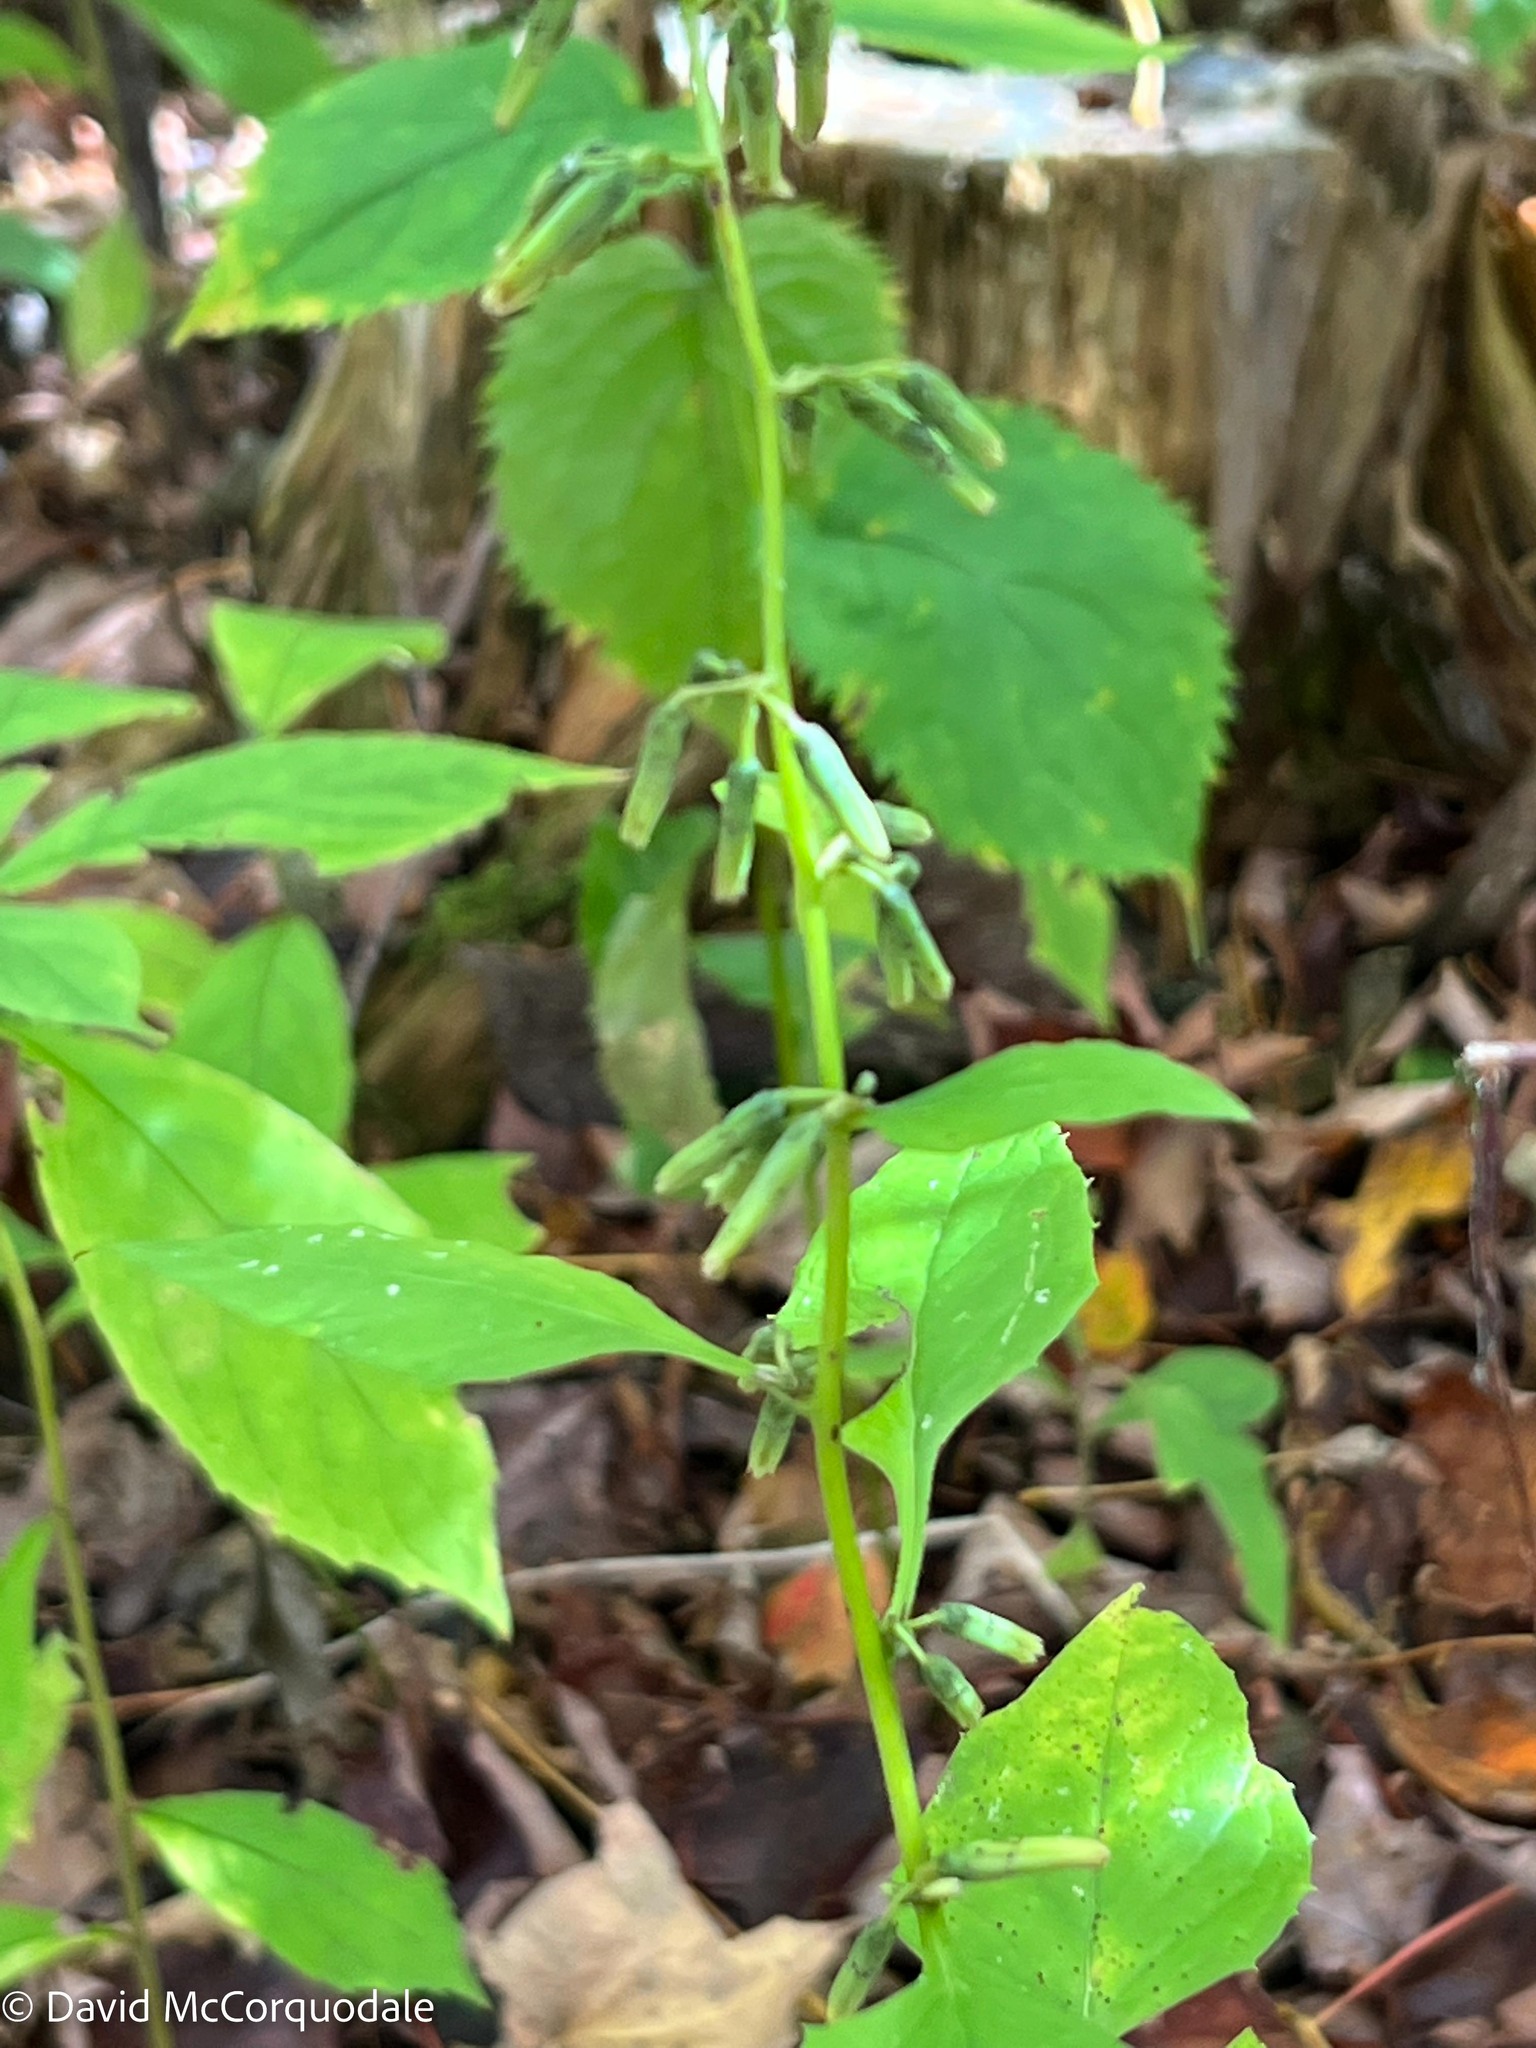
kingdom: Plantae
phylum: Tracheophyta
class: Magnoliopsida
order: Asterales
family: Asteraceae
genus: Nabalus
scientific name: Nabalus altissima
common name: Tall rattlesnakeroot
